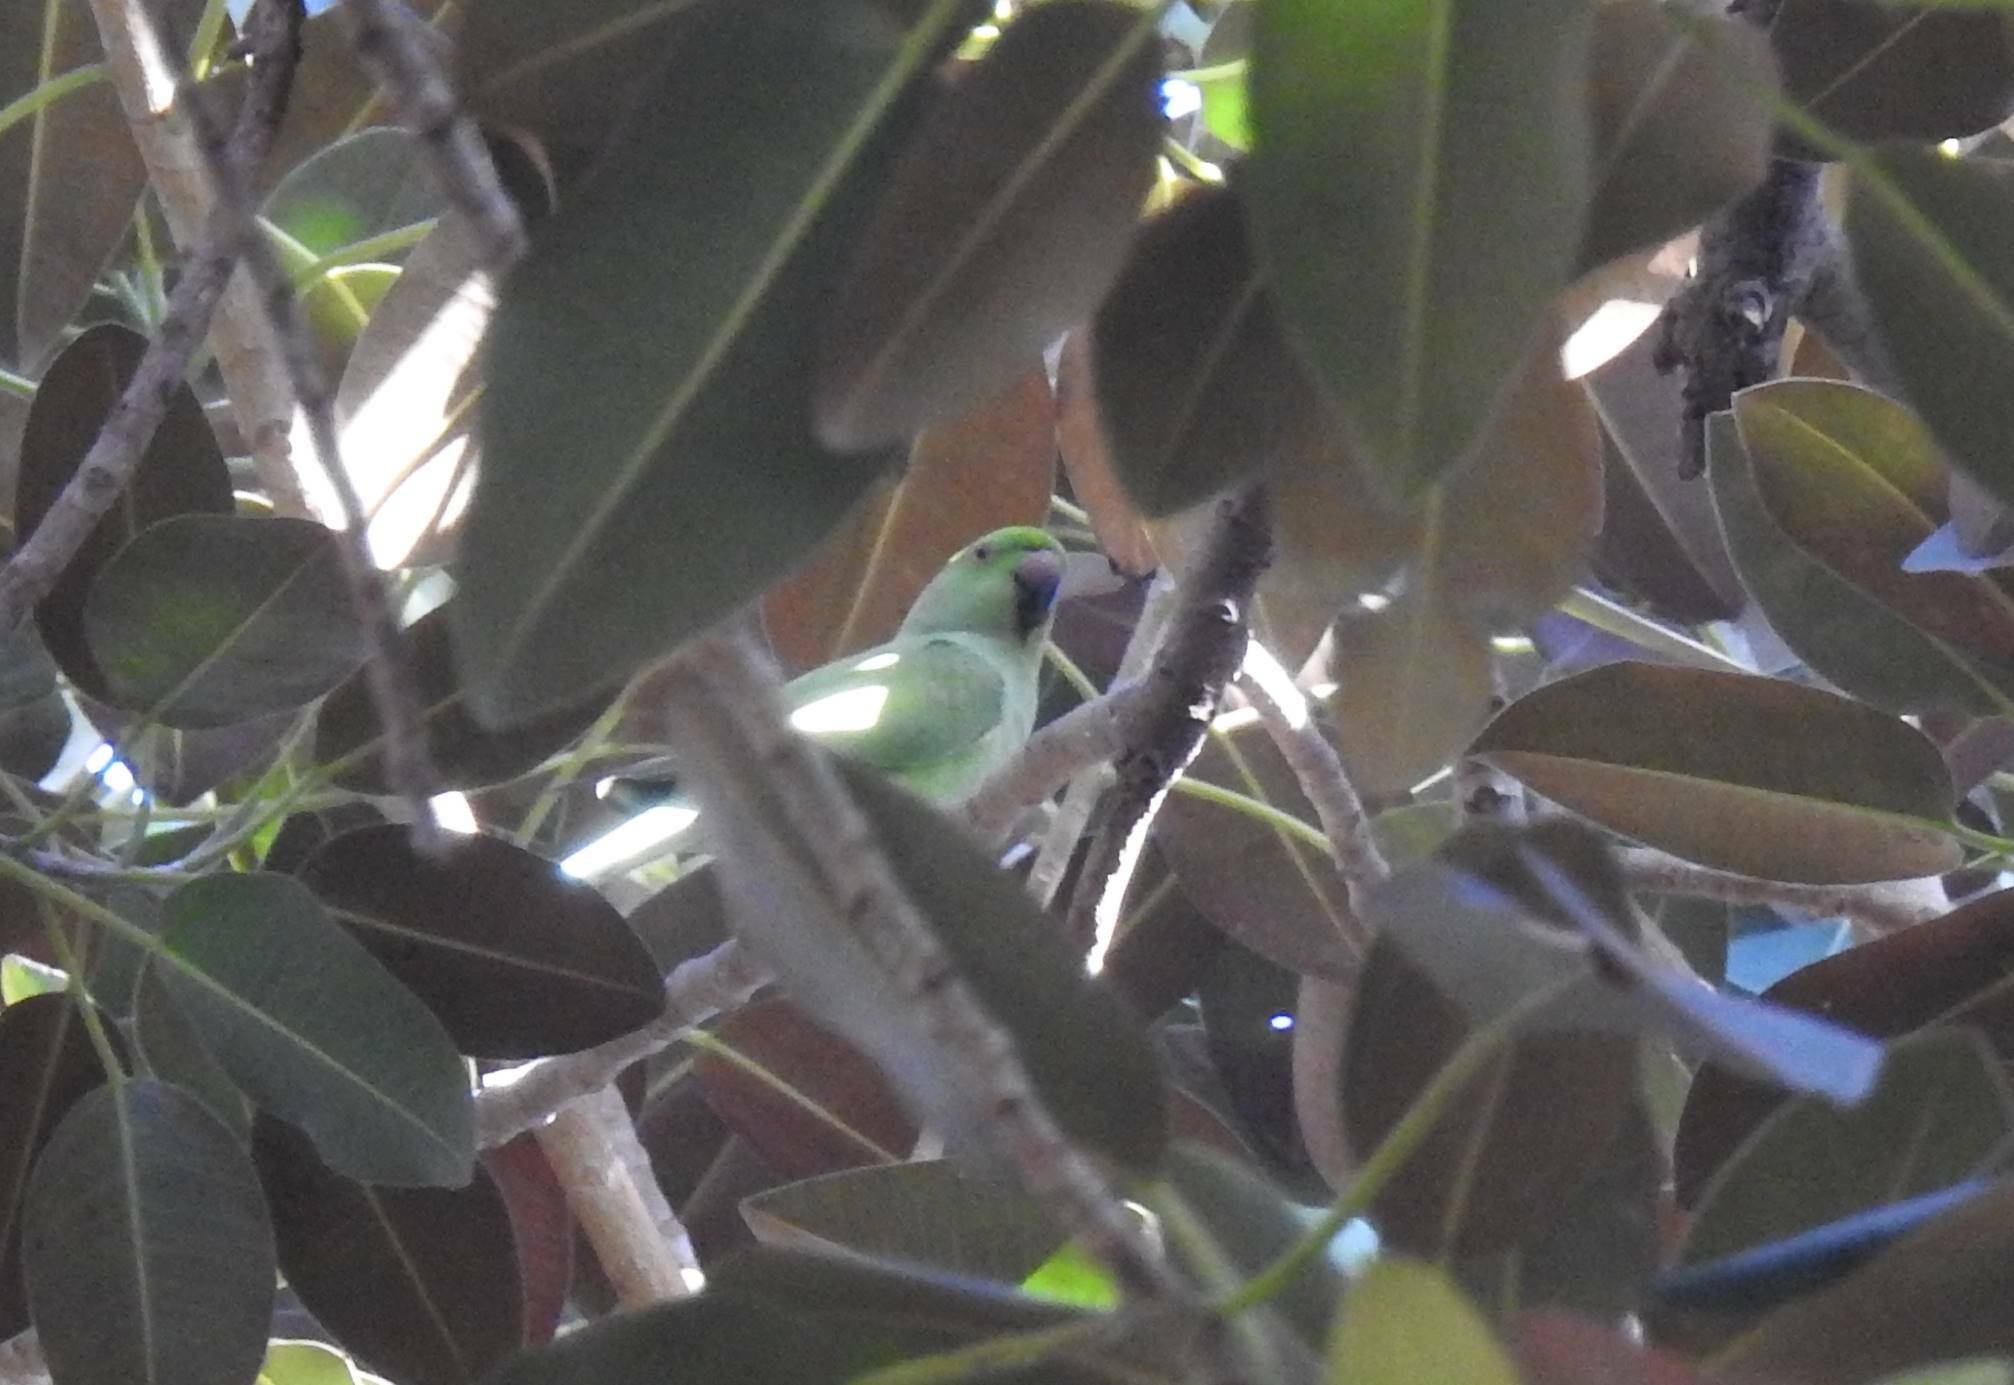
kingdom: Animalia
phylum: Chordata
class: Aves
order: Psittaciformes
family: Psittacidae
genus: Psittacula
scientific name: Psittacula krameri
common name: Rose-ringed parakeet
